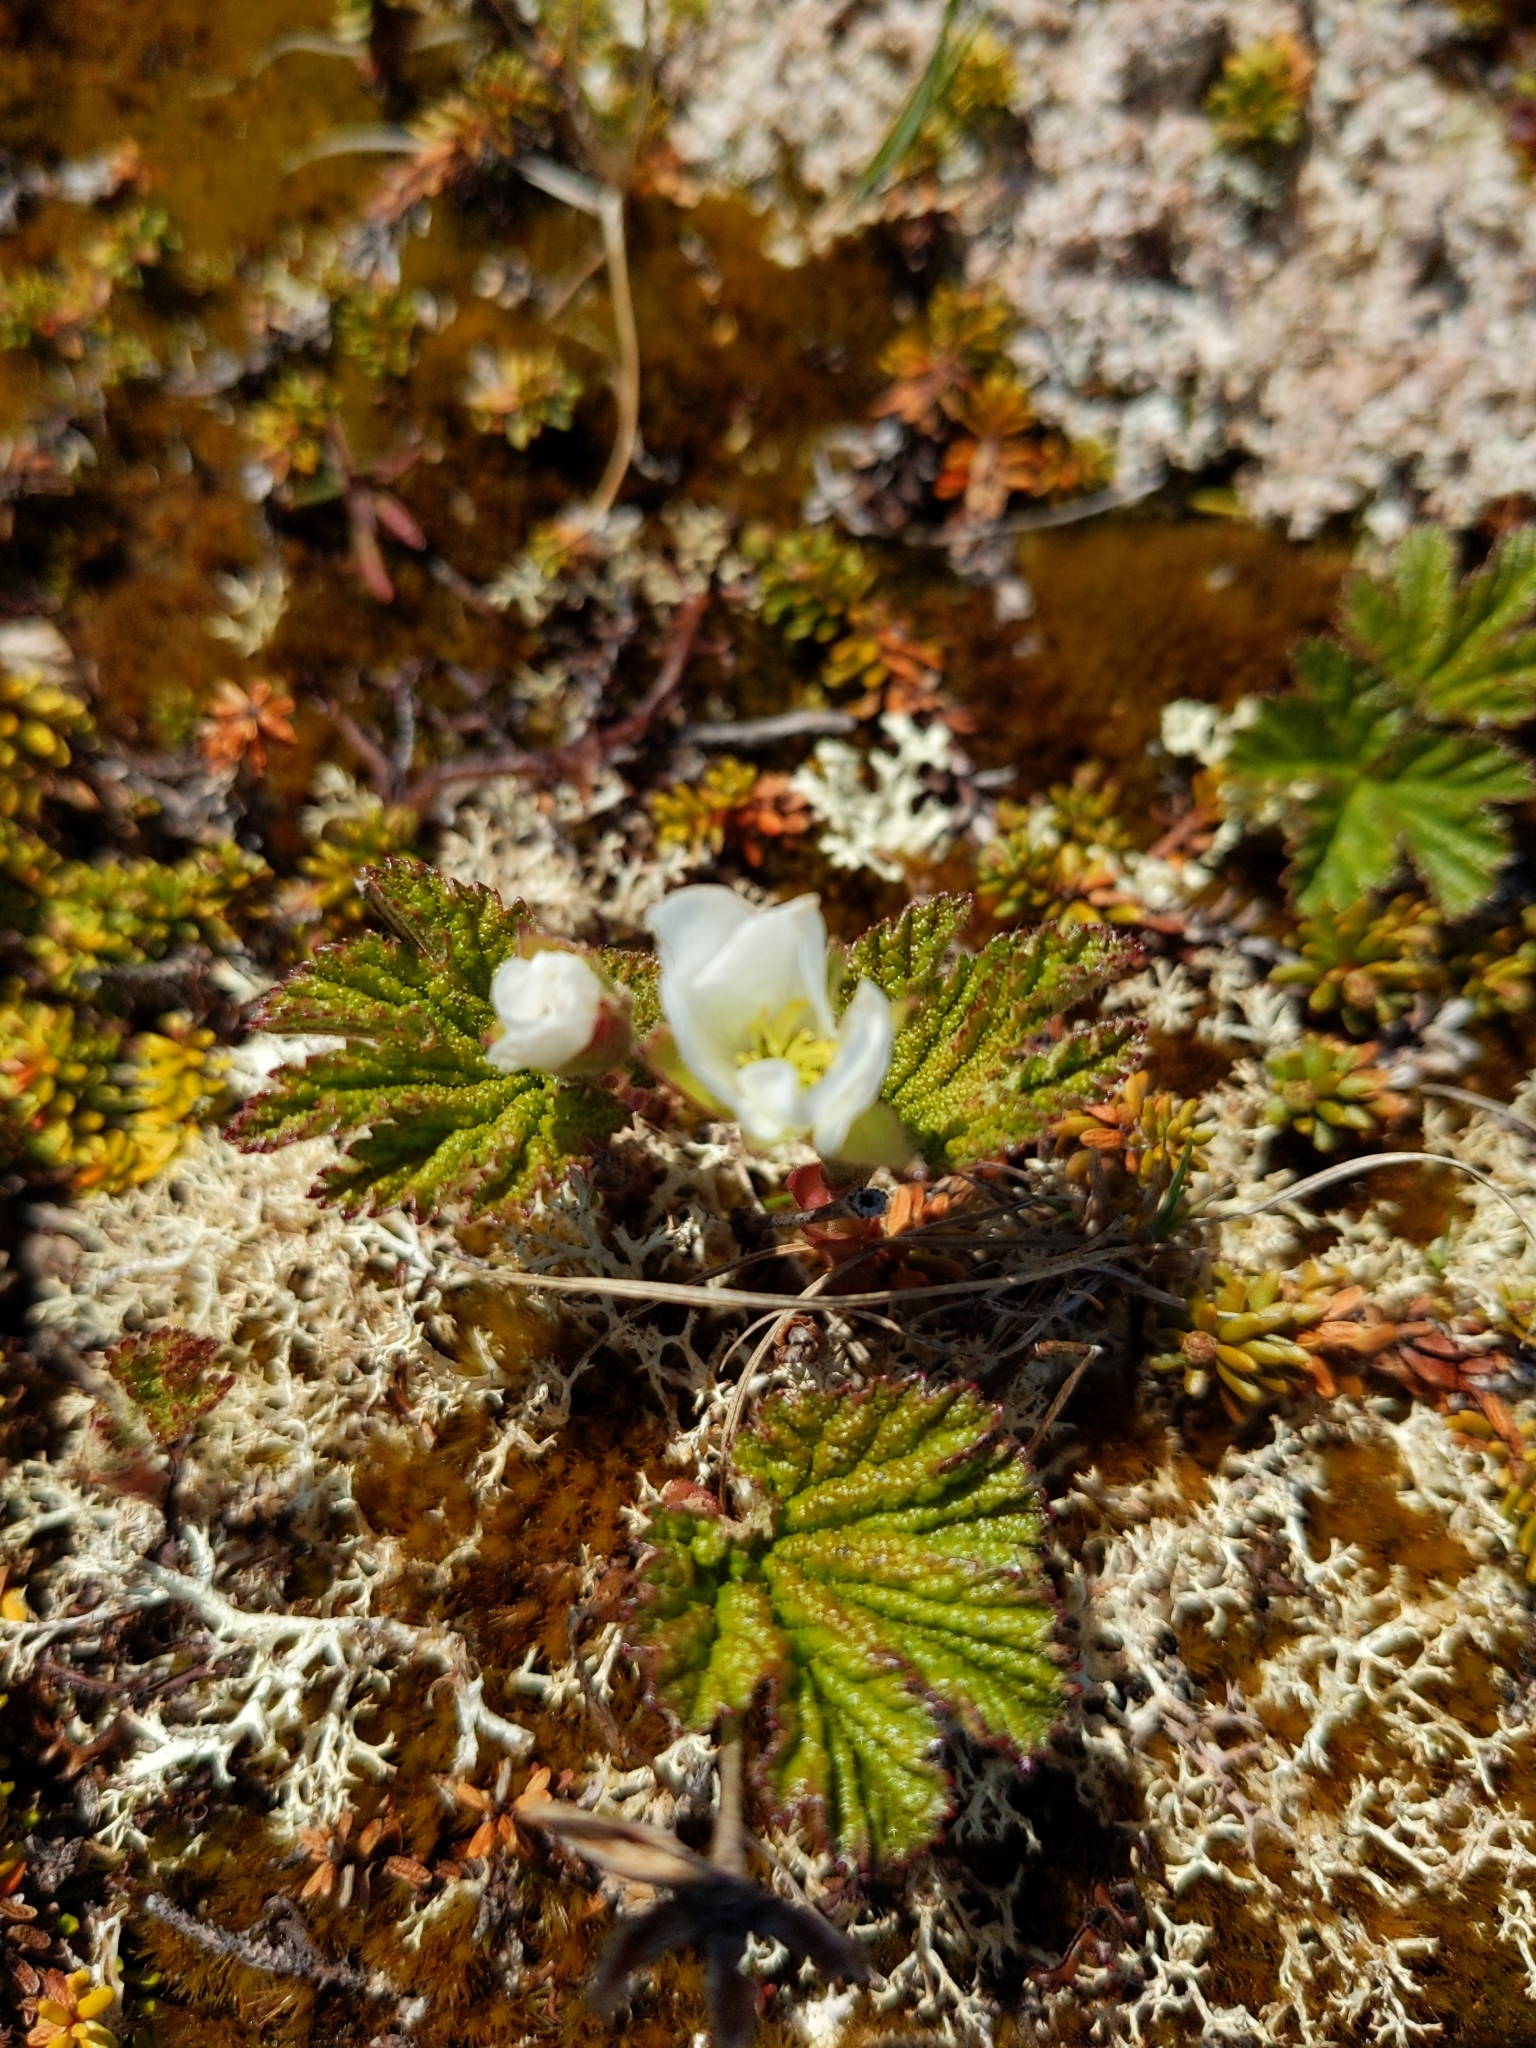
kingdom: Plantae
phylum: Tracheophyta
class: Magnoliopsida
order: Rosales
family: Rosaceae
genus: Rubus
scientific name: Rubus chamaemorus
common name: Cloudberry
